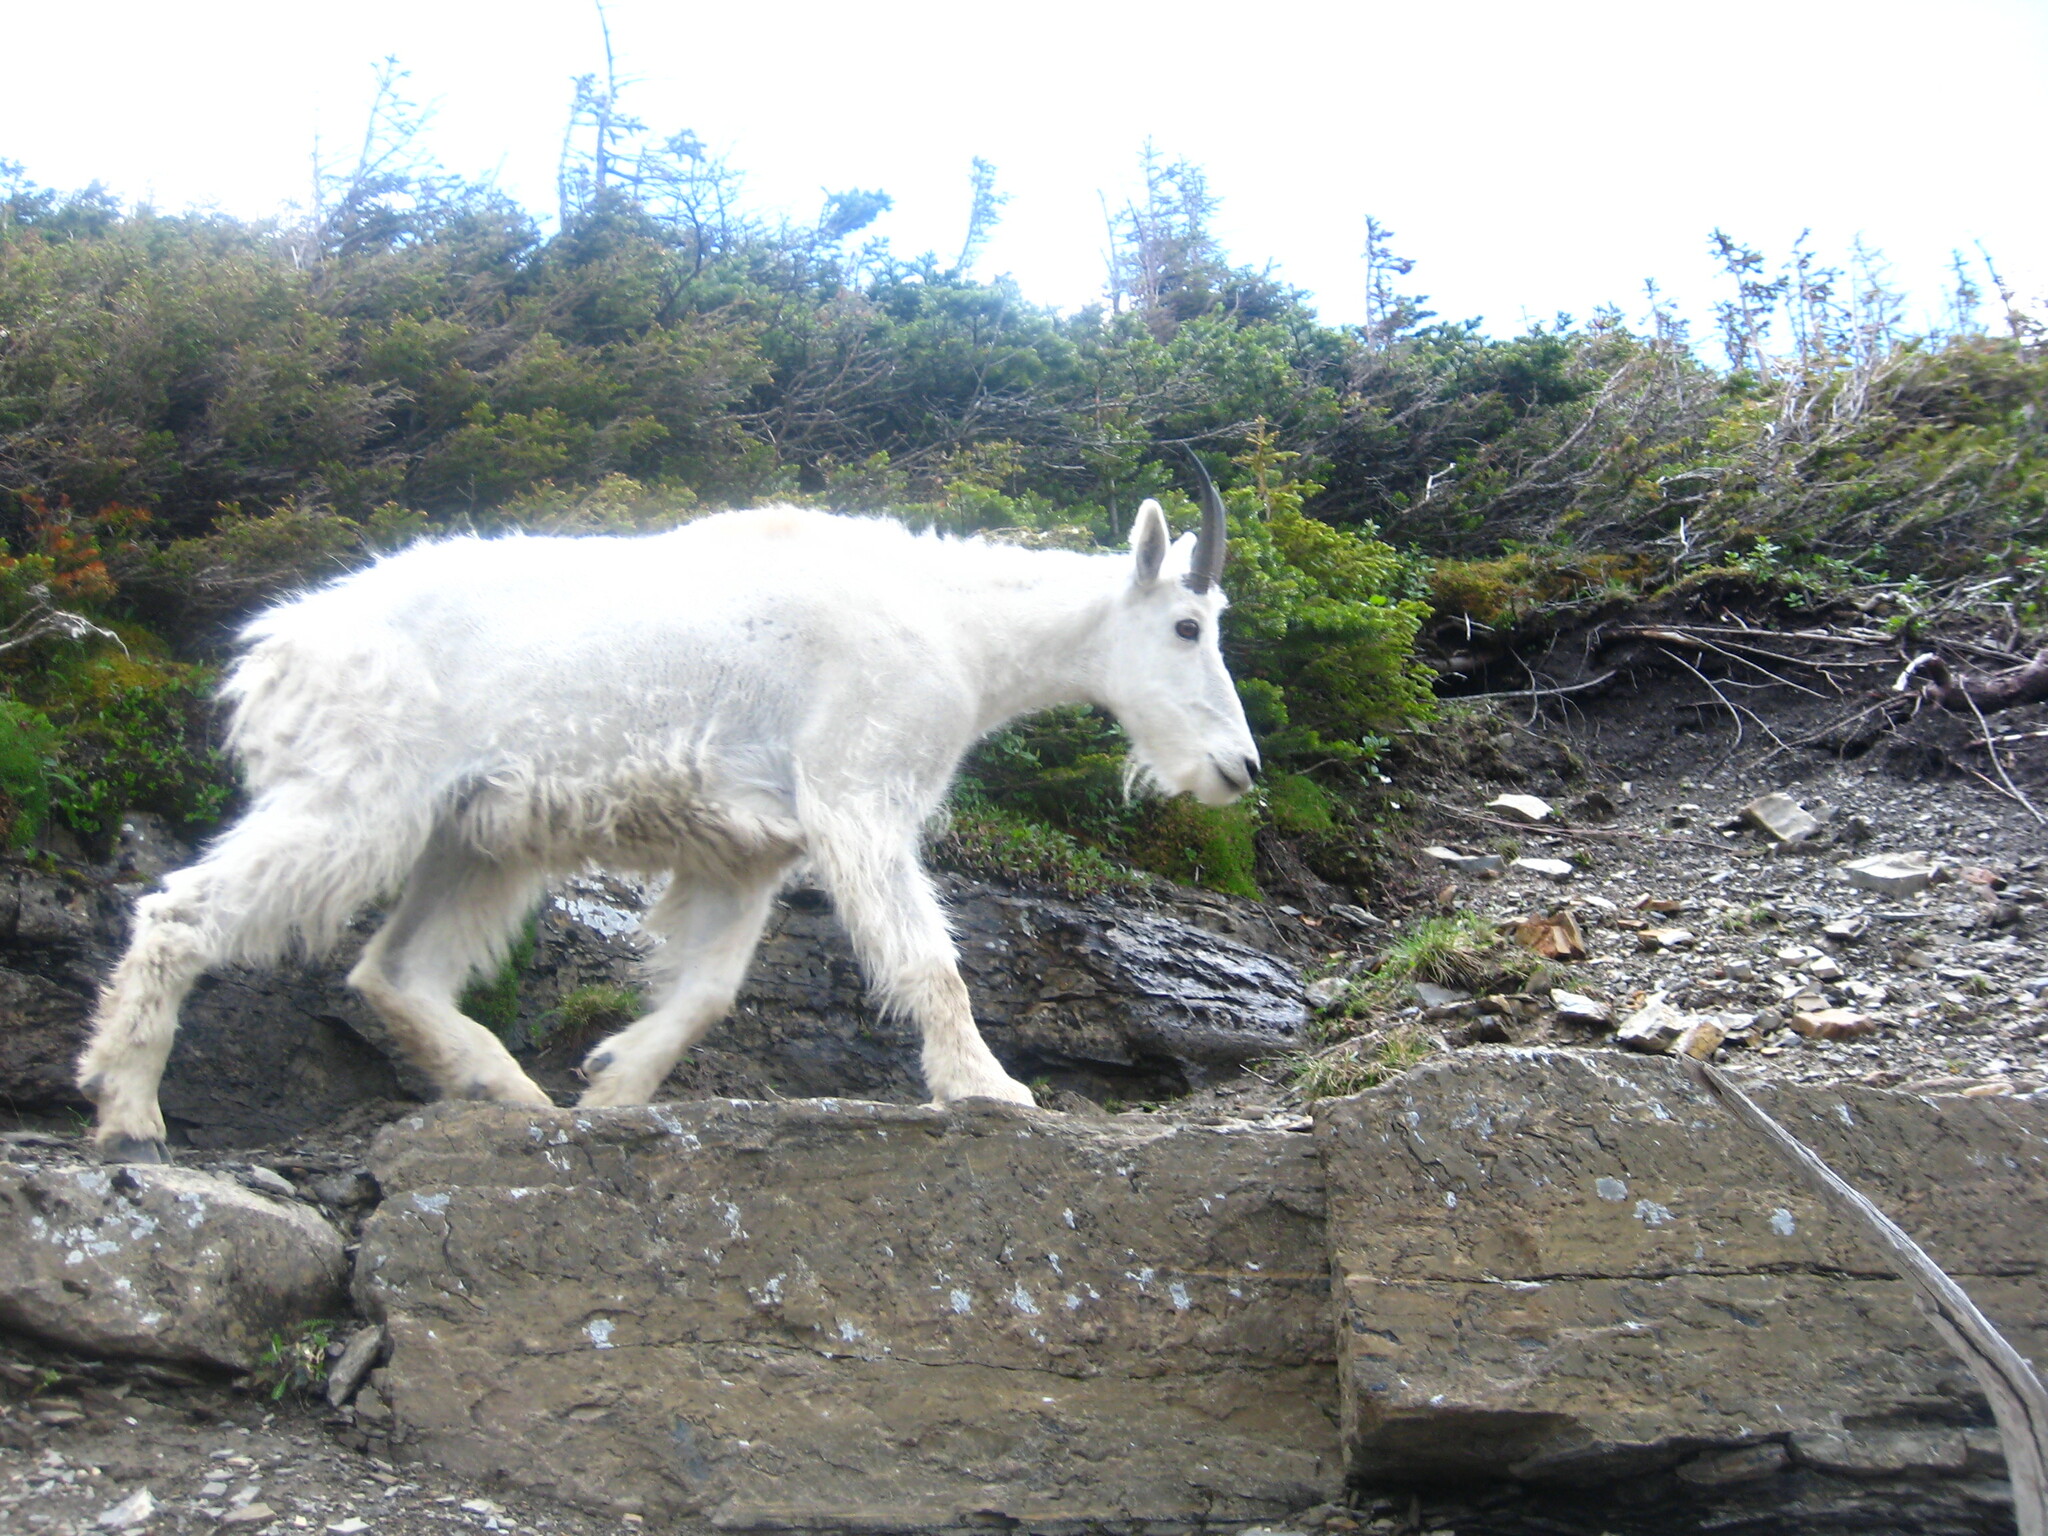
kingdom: Animalia
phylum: Chordata
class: Mammalia
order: Artiodactyla
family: Bovidae
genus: Oreamnos
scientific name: Oreamnos americanus
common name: Mountain goat
